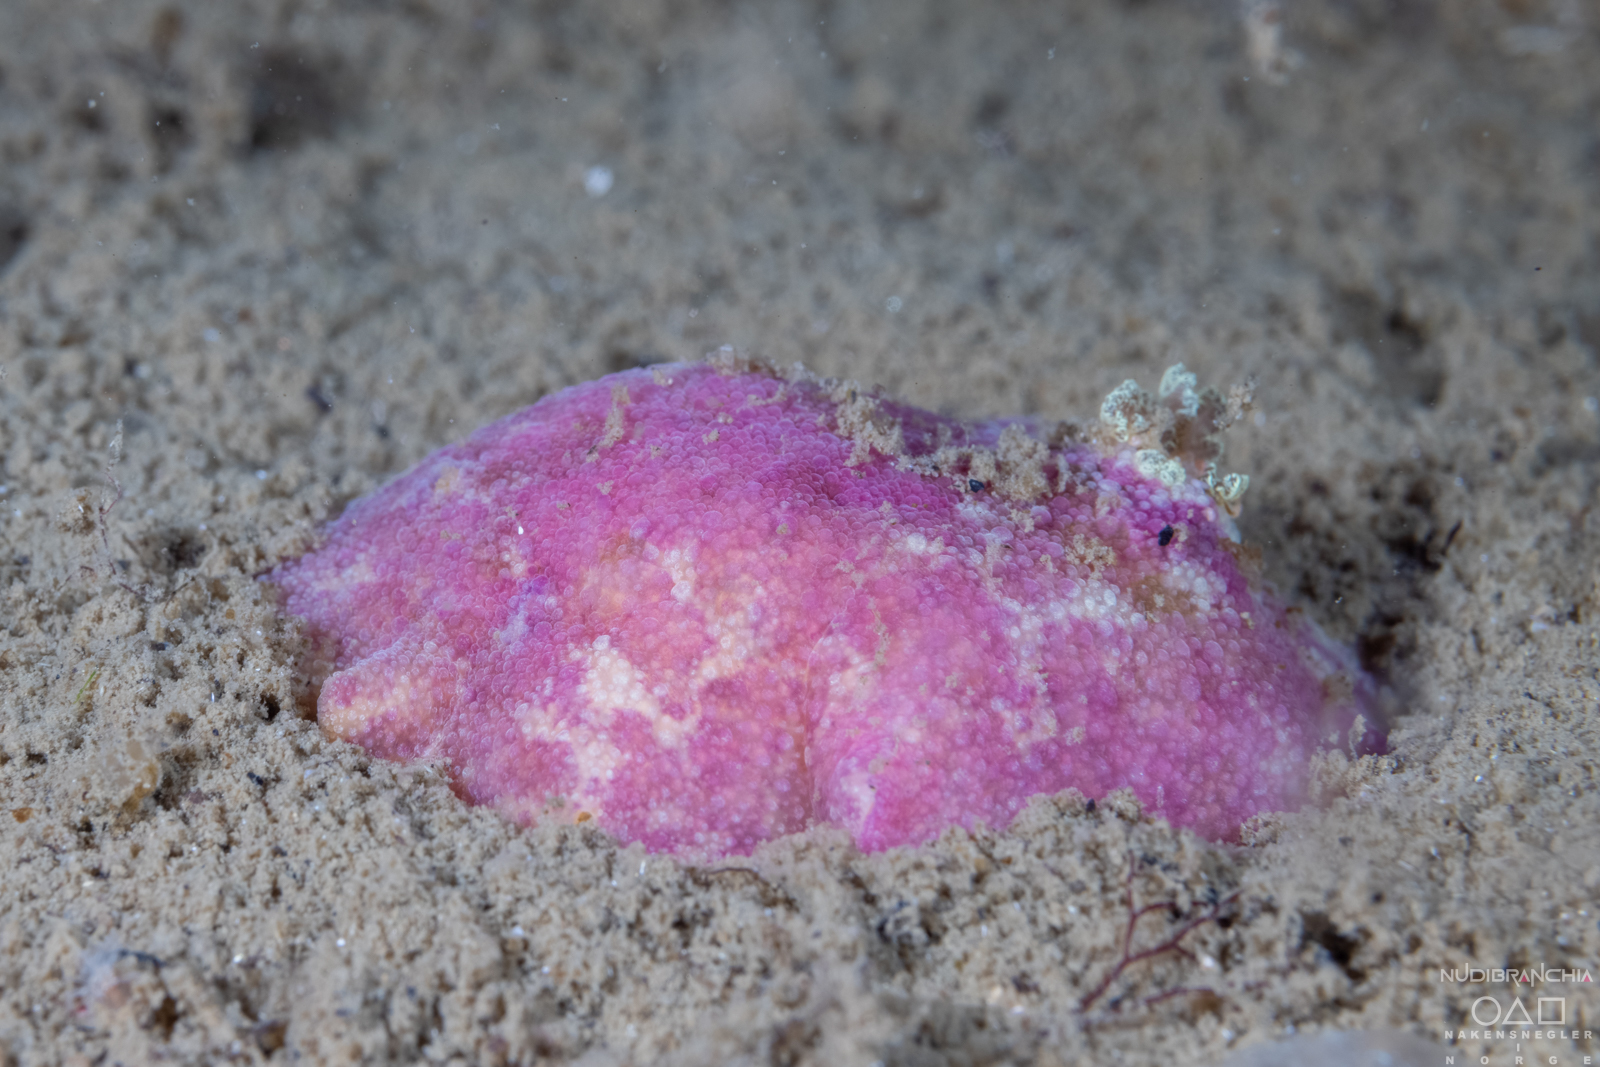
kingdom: Animalia
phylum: Mollusca
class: Gastropoda
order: Nudibranchia
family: Dorididae
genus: Doris
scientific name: Doris pseudoargus
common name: Sea lemon
